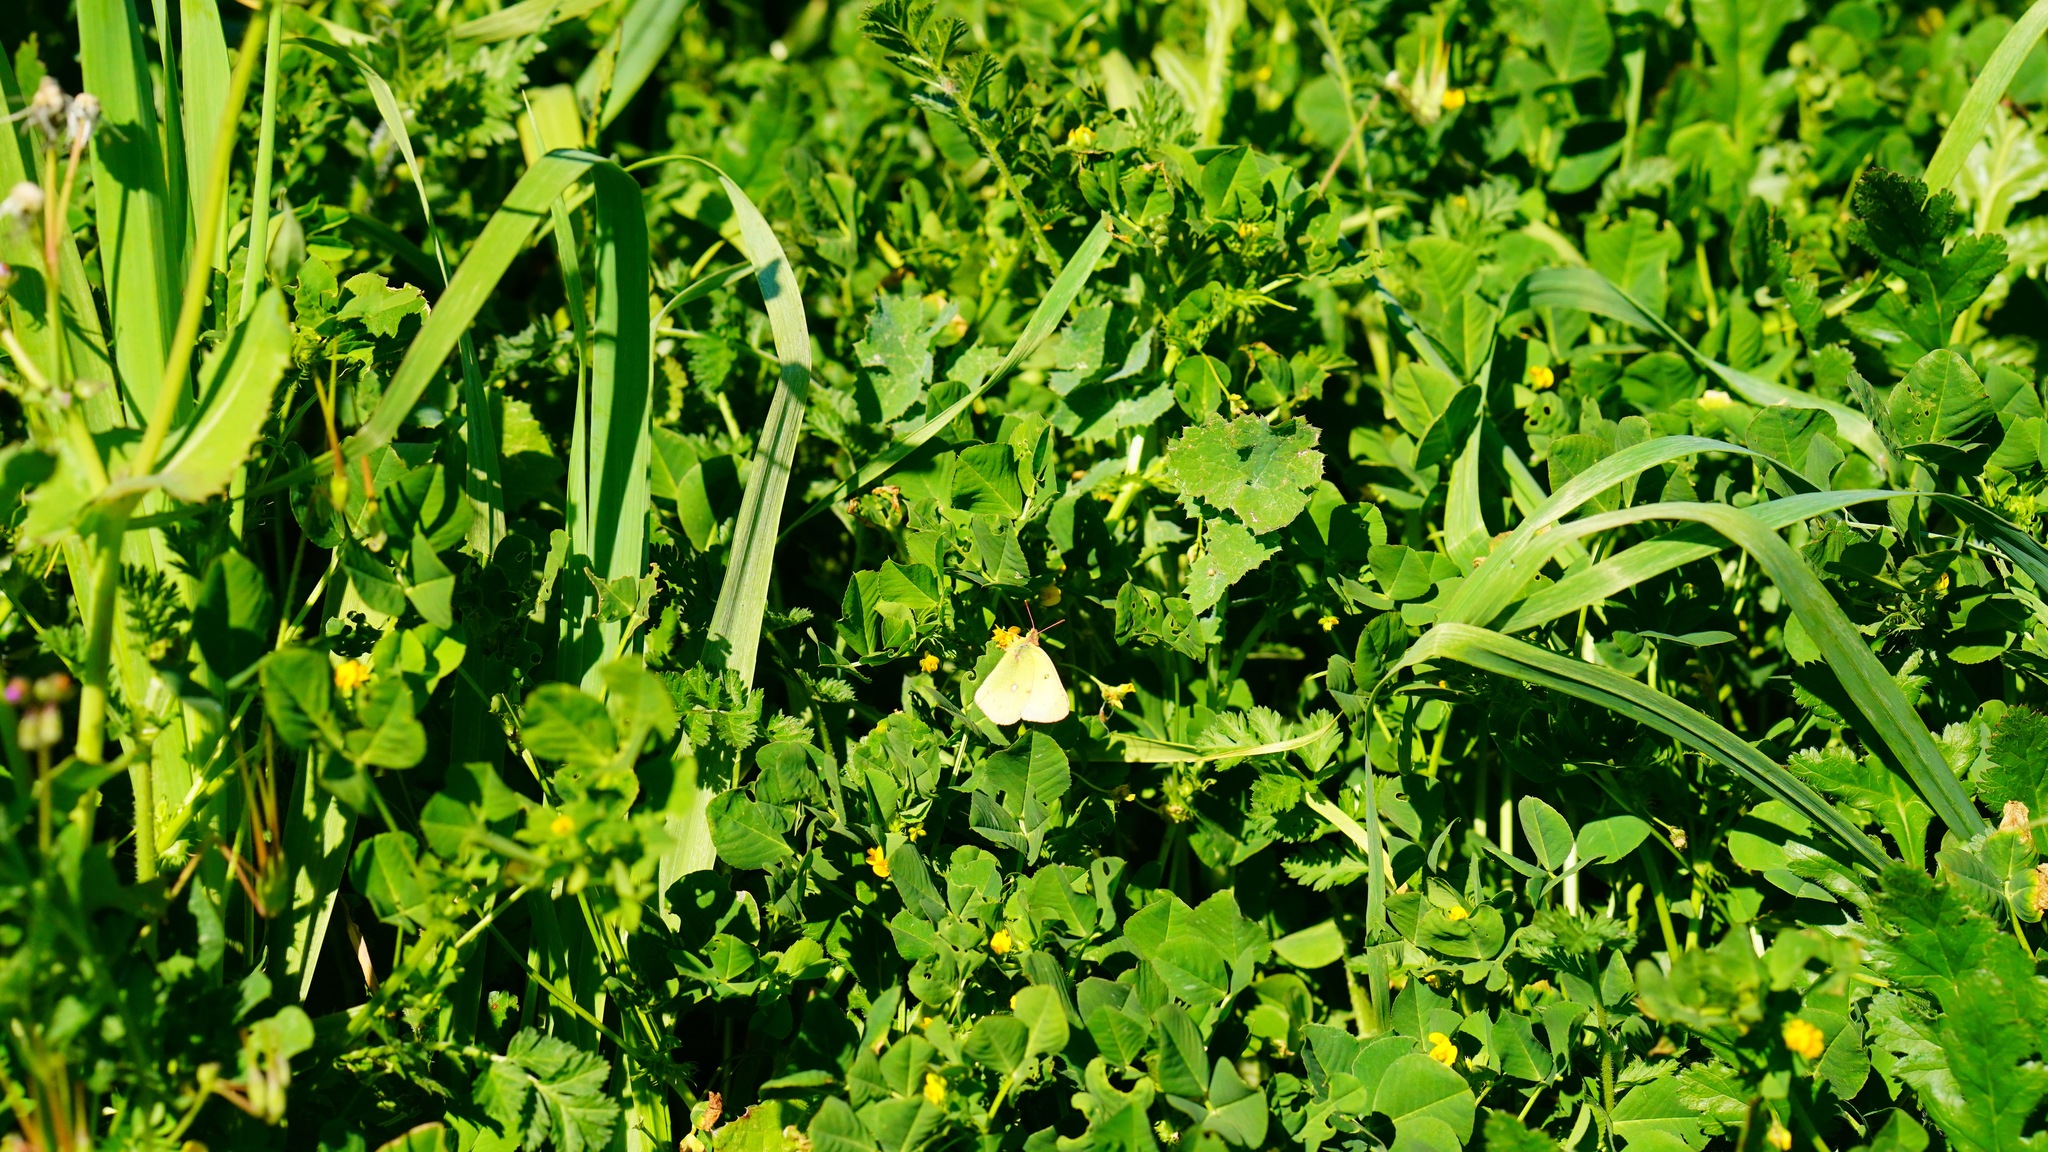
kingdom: Animalia
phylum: Arthropoda
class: Insecta
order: Lepidoptera
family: Pieridae
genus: Colias
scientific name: Colias eurytheme
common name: Alfalfa butterfly
